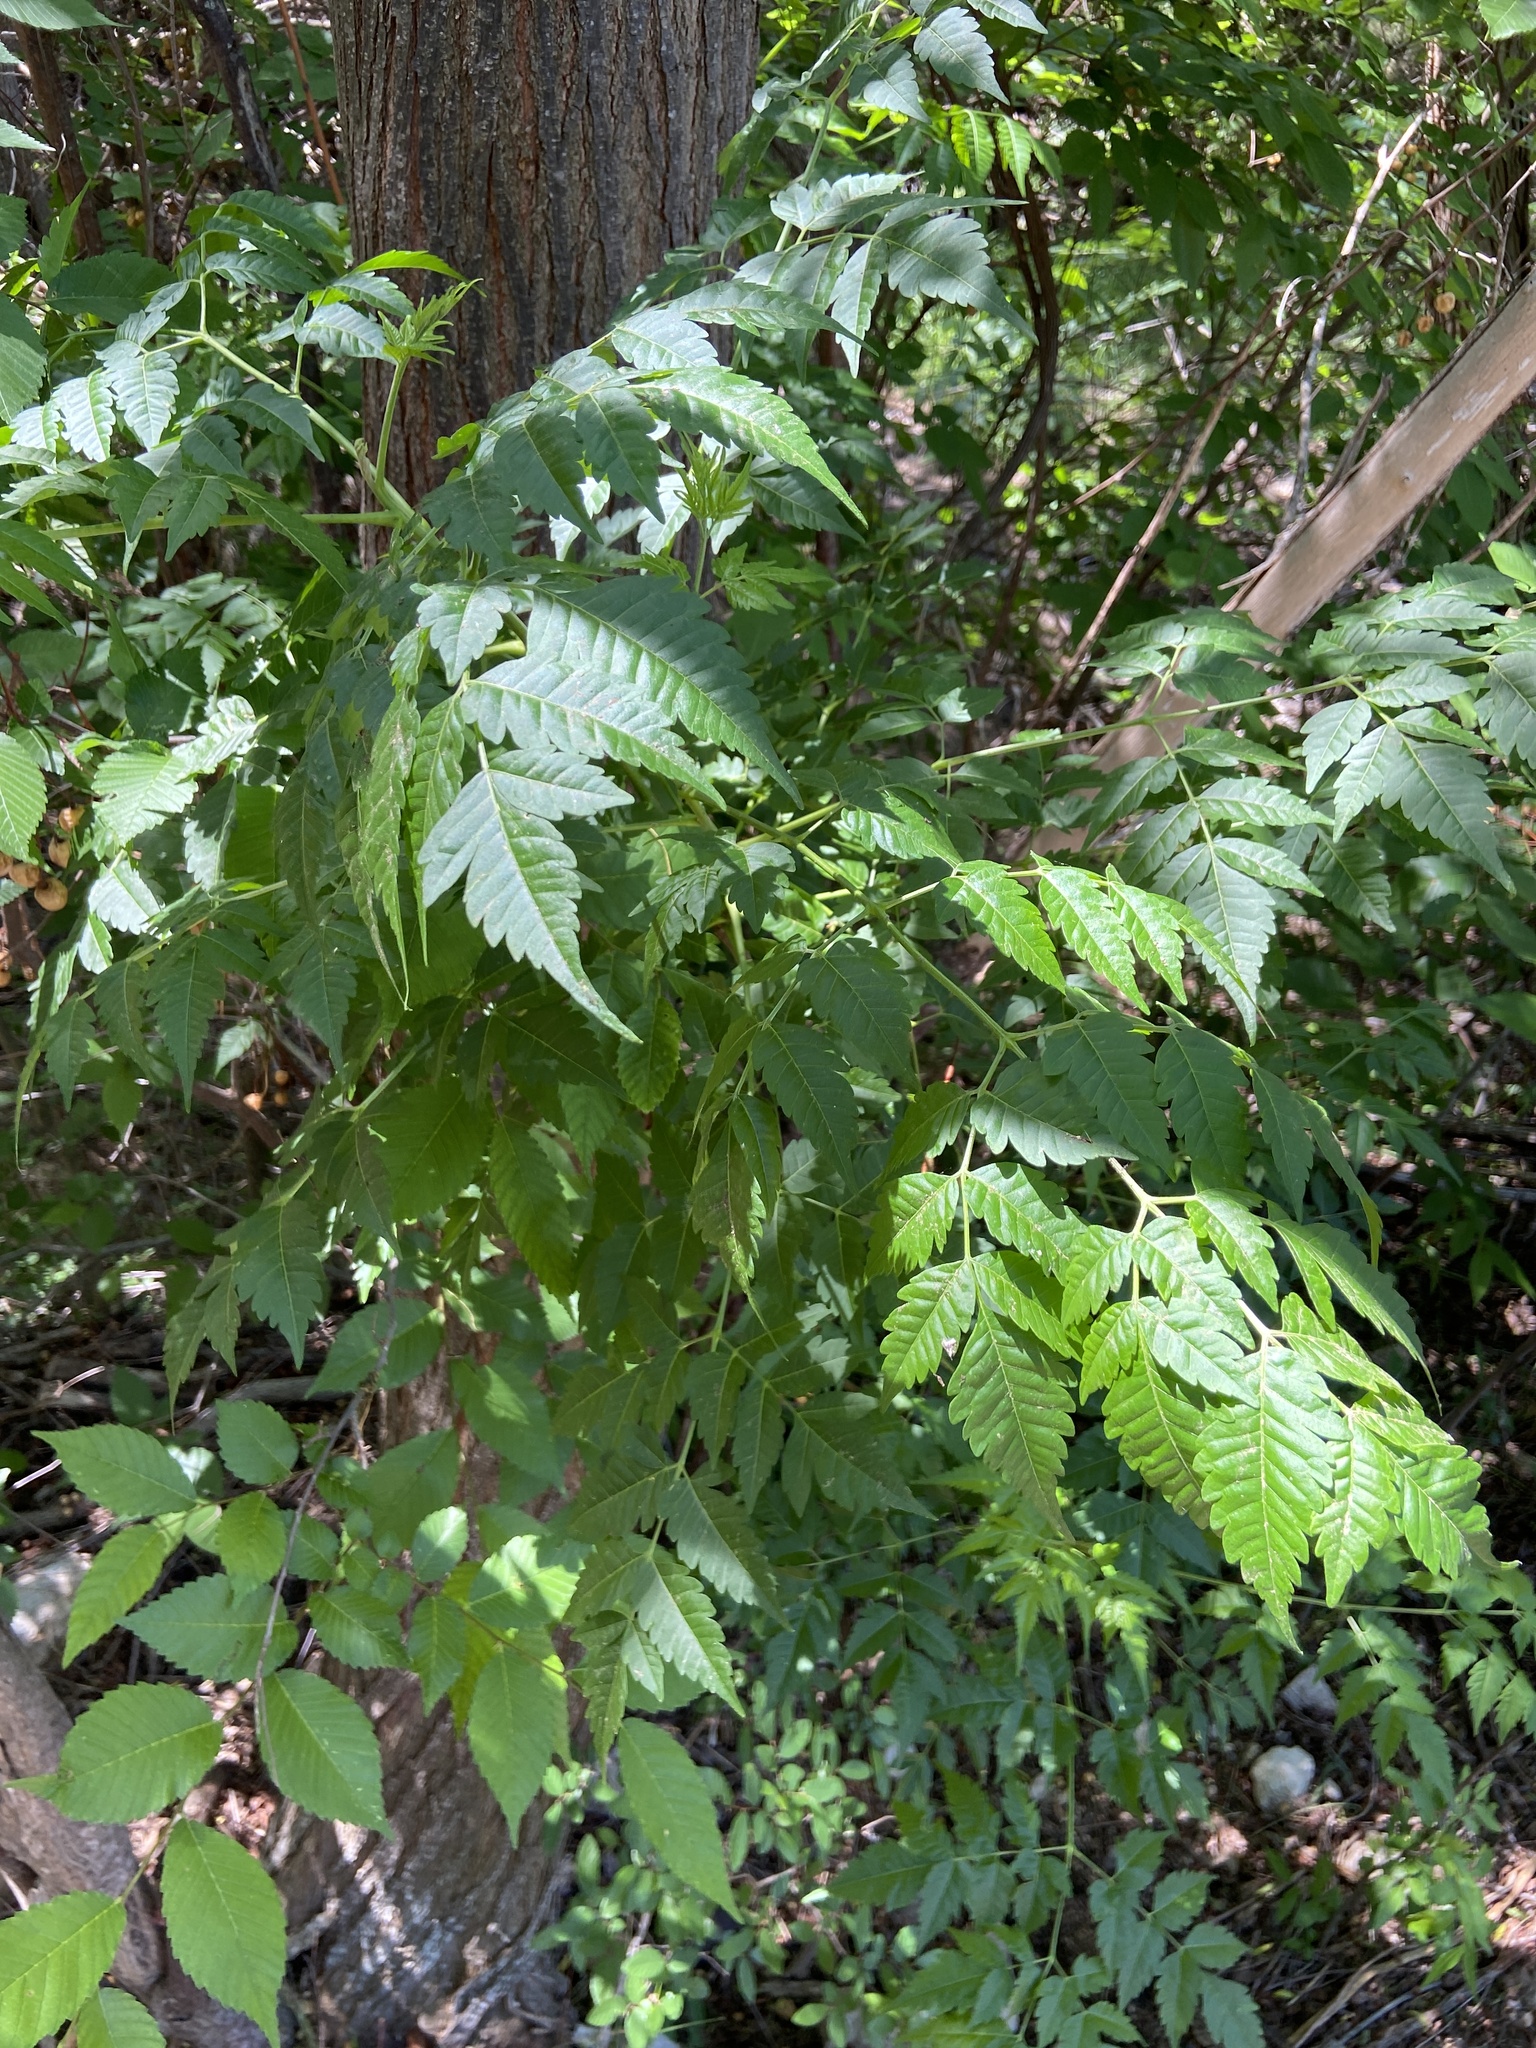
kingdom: Plantae
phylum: Tracheophyta
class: Magnoliopsida
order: Sapindales
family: Meliaceae
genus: Melia
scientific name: Melia azedarach
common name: Chinaberrytree
